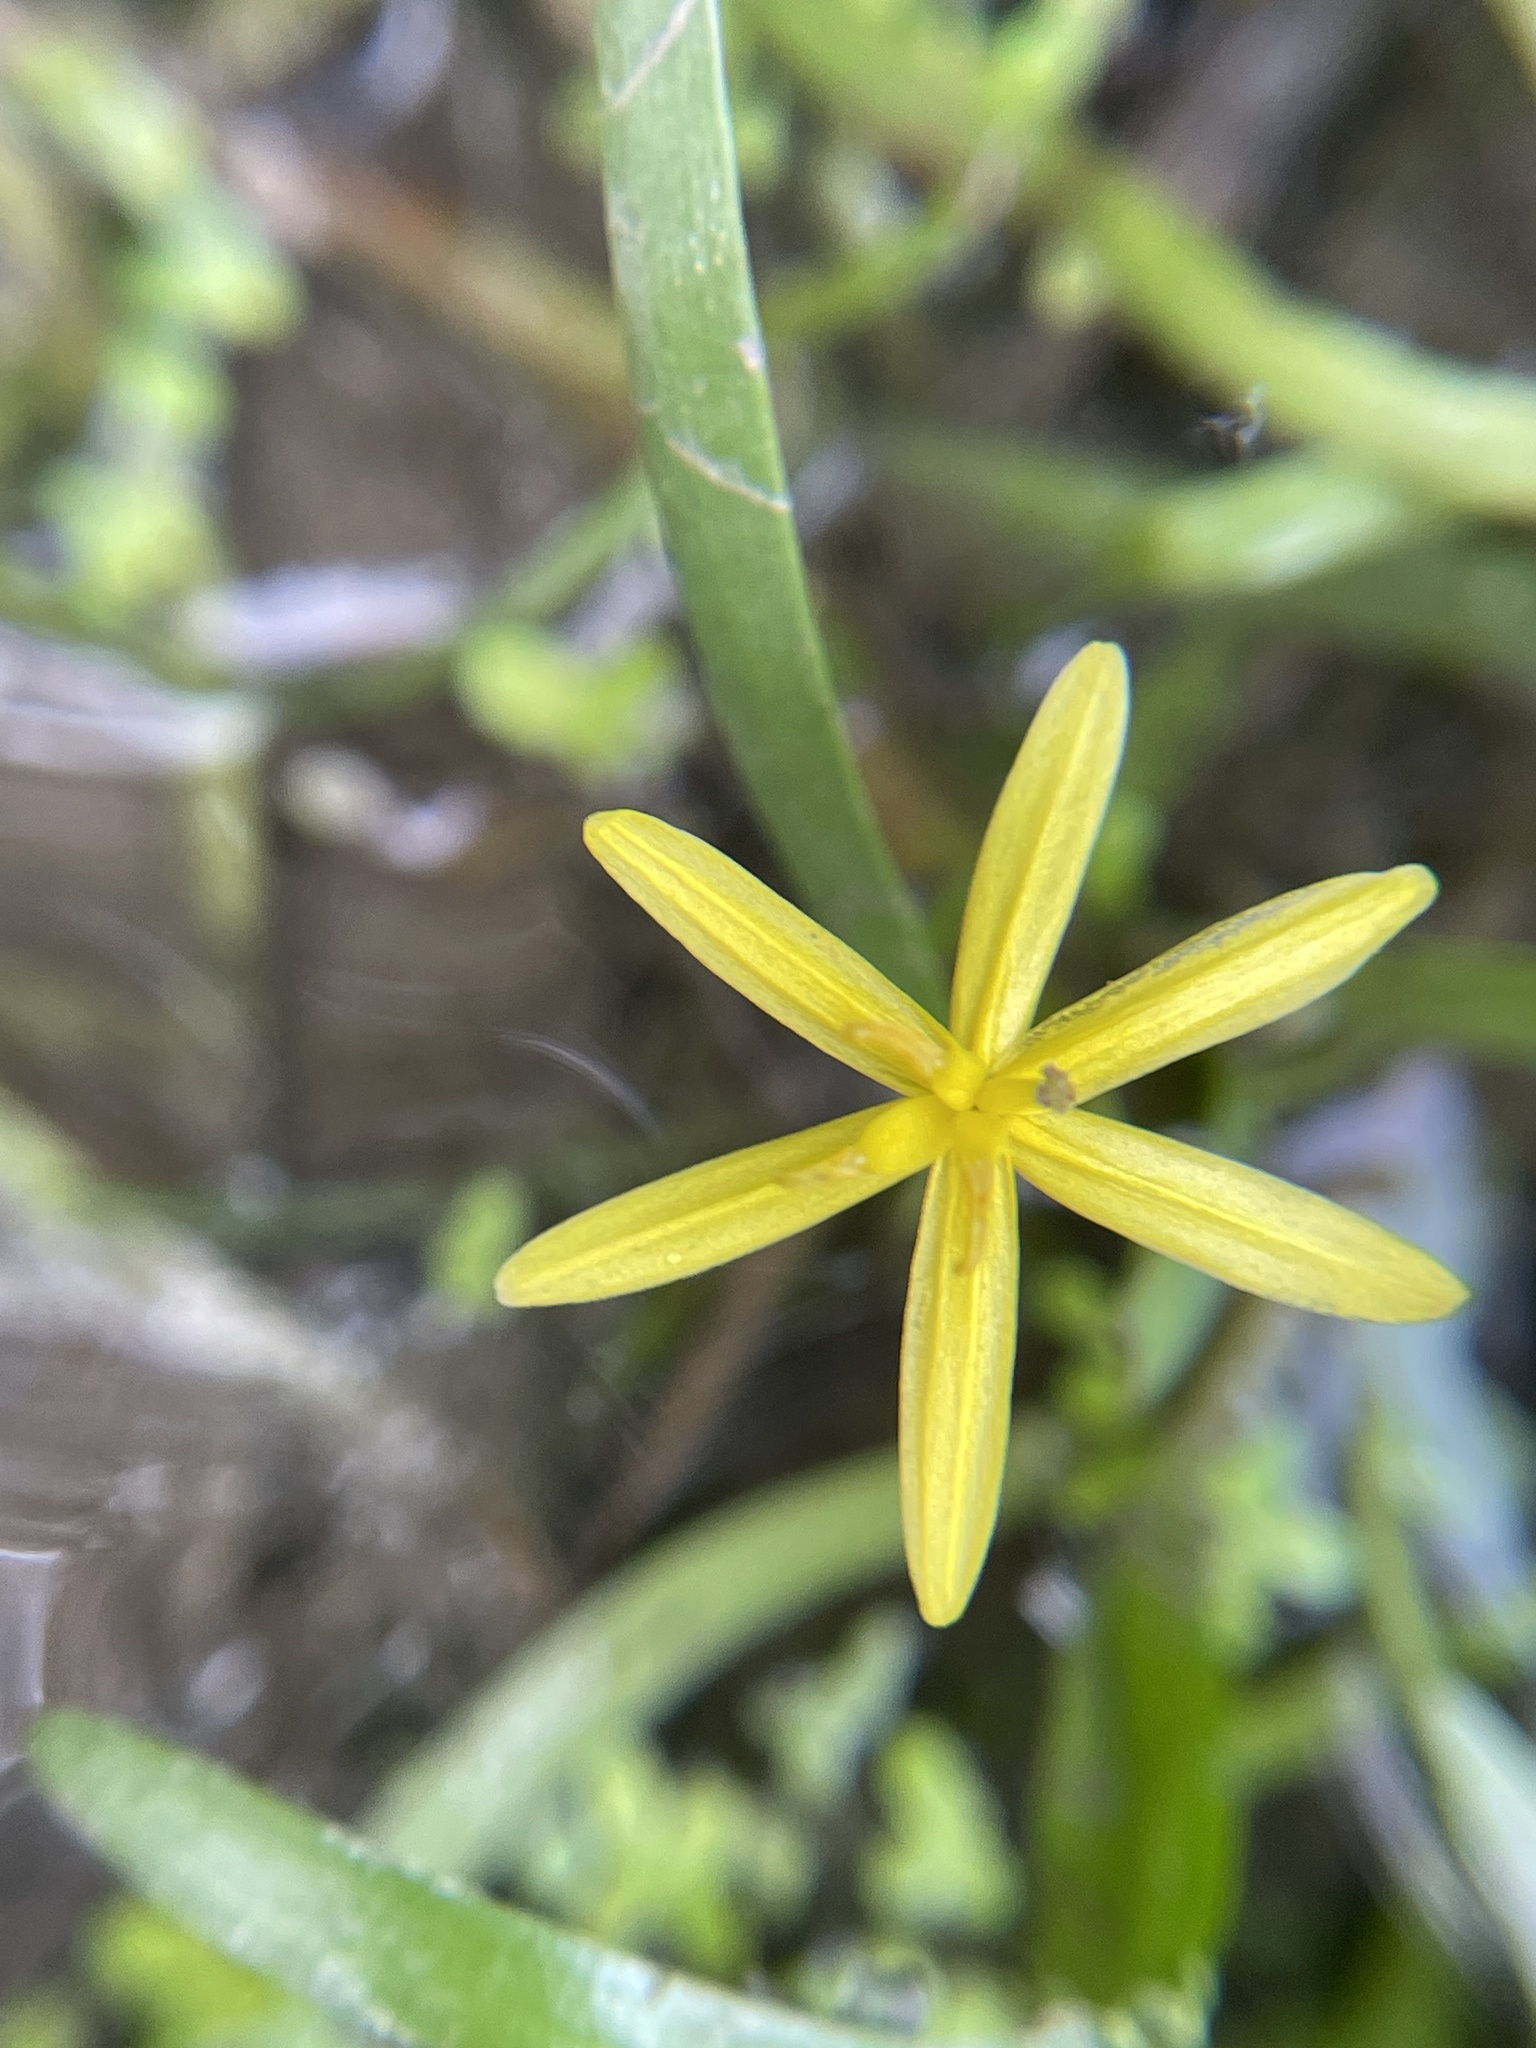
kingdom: Plantae
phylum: Tracheophyta
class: Liliopsida
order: Commelinales
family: Pontederiaceae
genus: Heteranthera
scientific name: Heteranthera dubia
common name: Grass-leaved mud plantain
